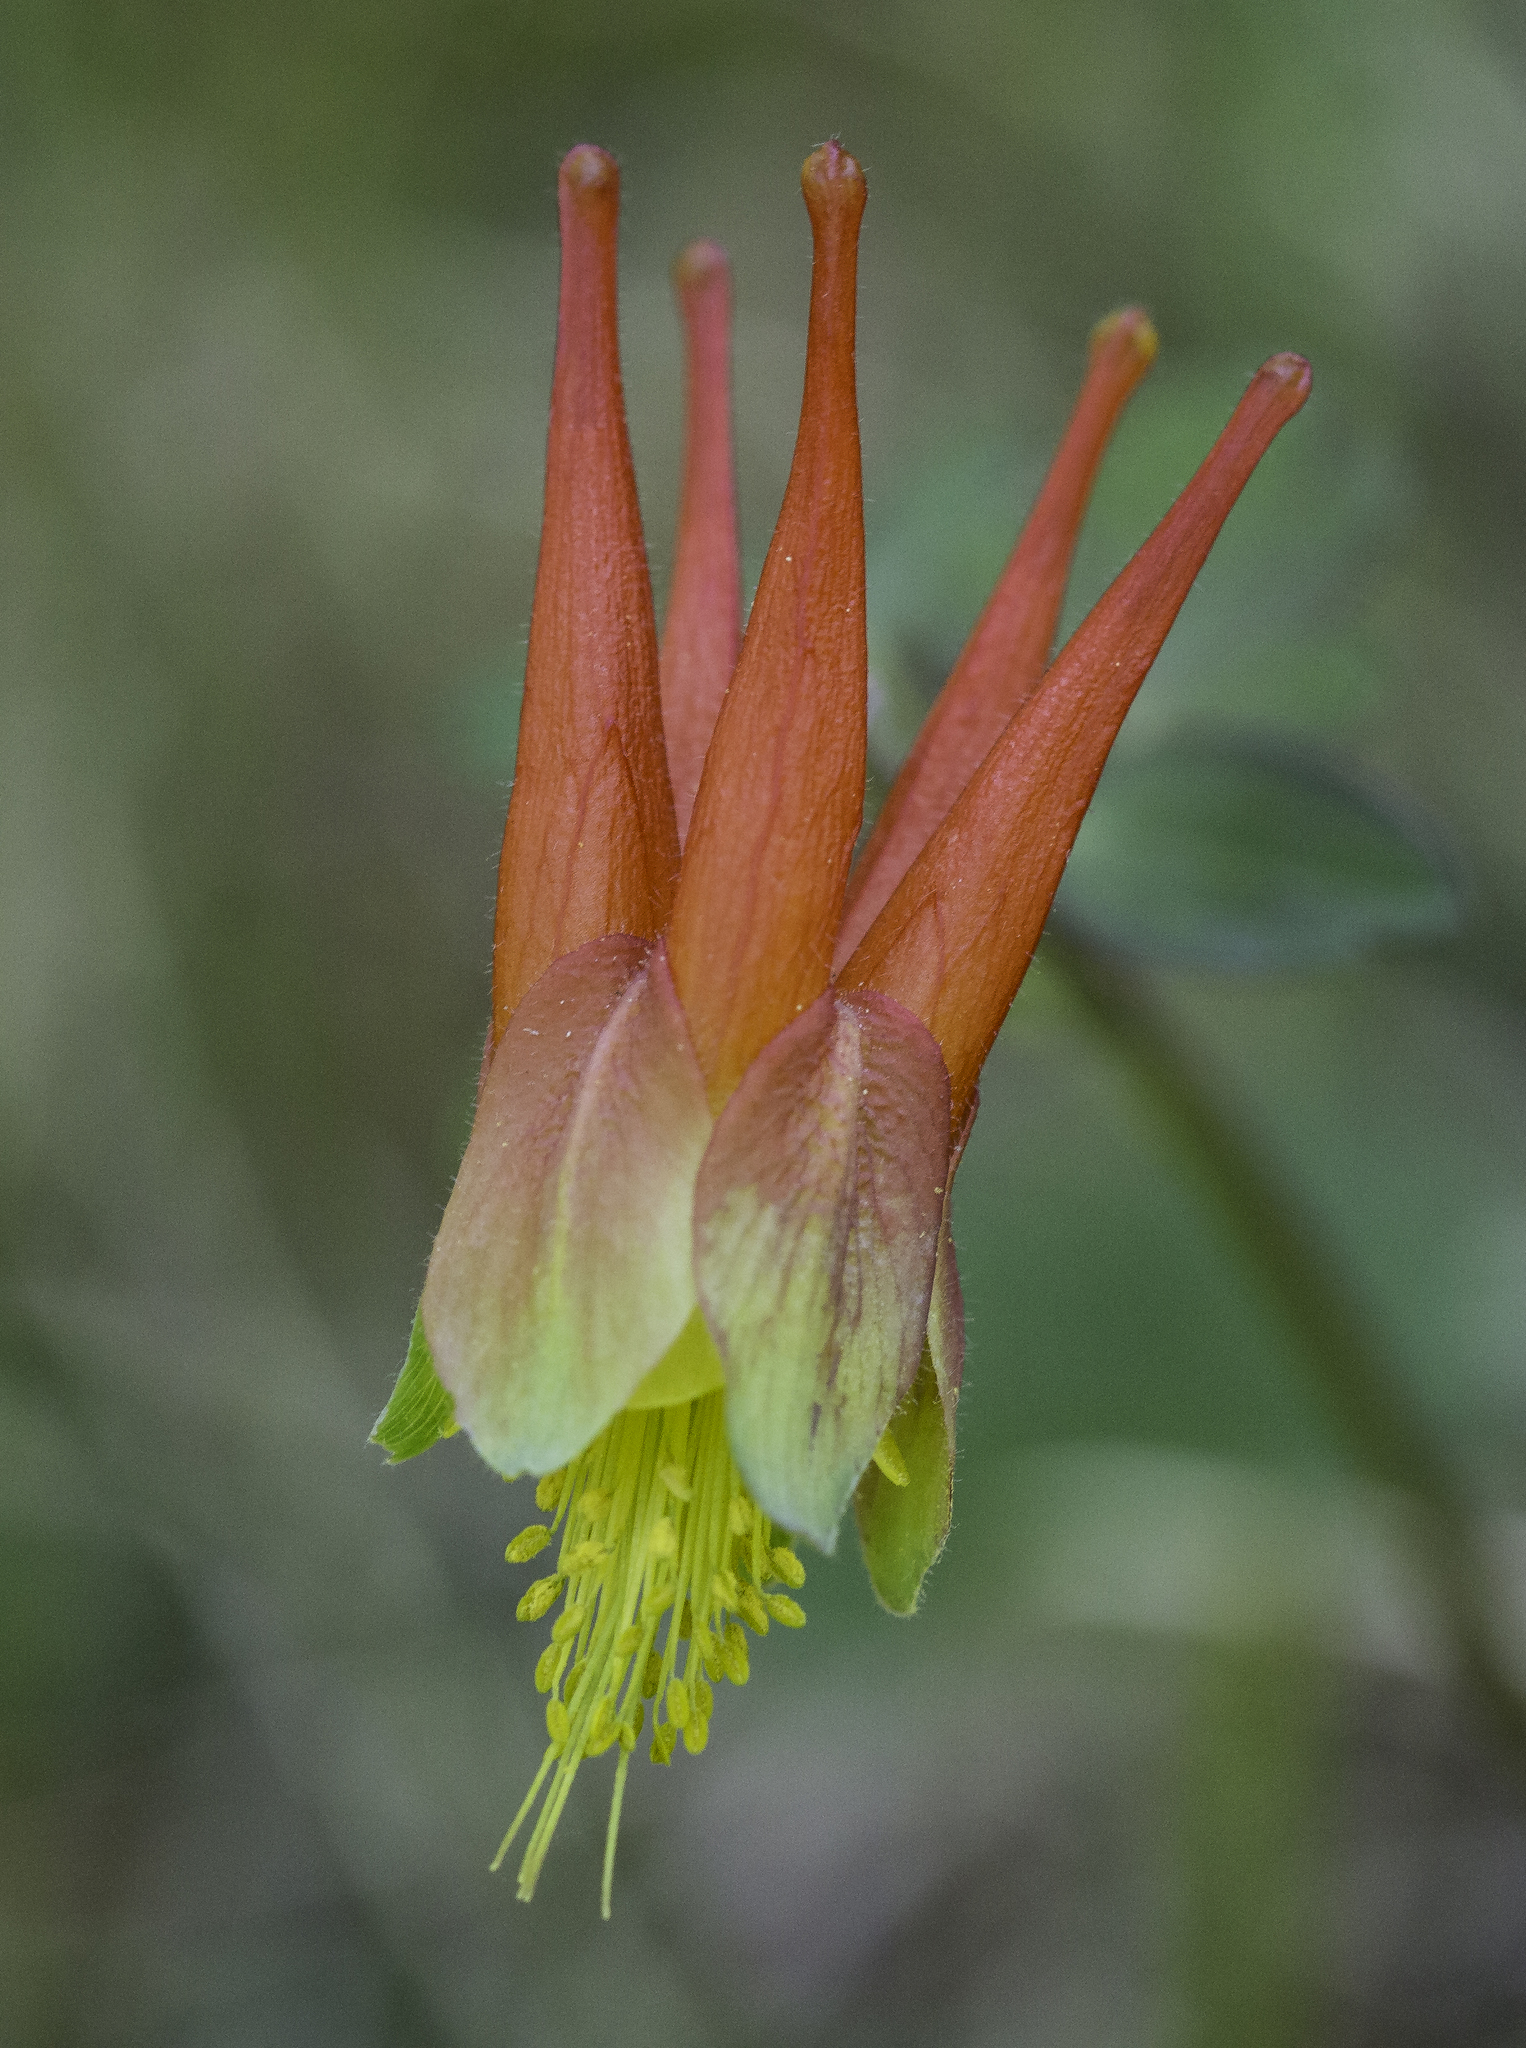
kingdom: Plantae
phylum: Tracheophyta
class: Magnoliopsida
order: Ranunculales
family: Ranunculaceae
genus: Aquilegia
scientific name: Aquilegia elegantula
